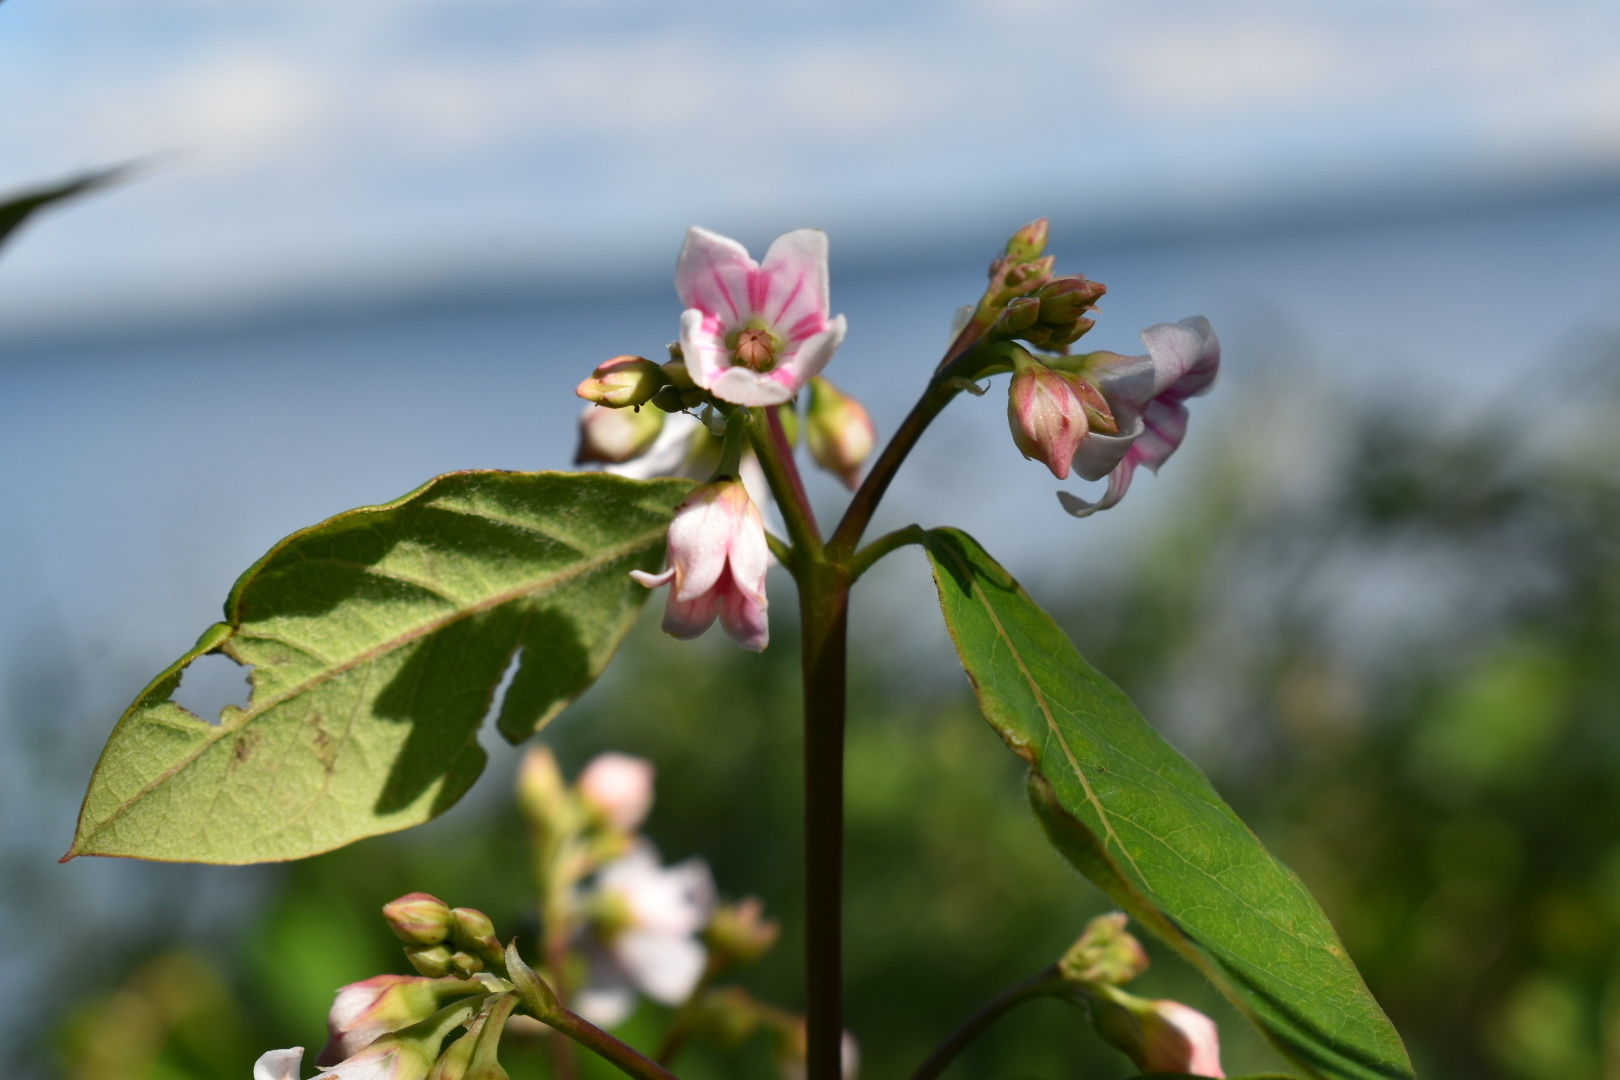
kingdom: Plantae
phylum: Tracheophyta
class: Magnoliopsida
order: Gentianales
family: Apocynaceae
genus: Apocynum
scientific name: Apocynum androsaemifolium
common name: Spreading dogbane
